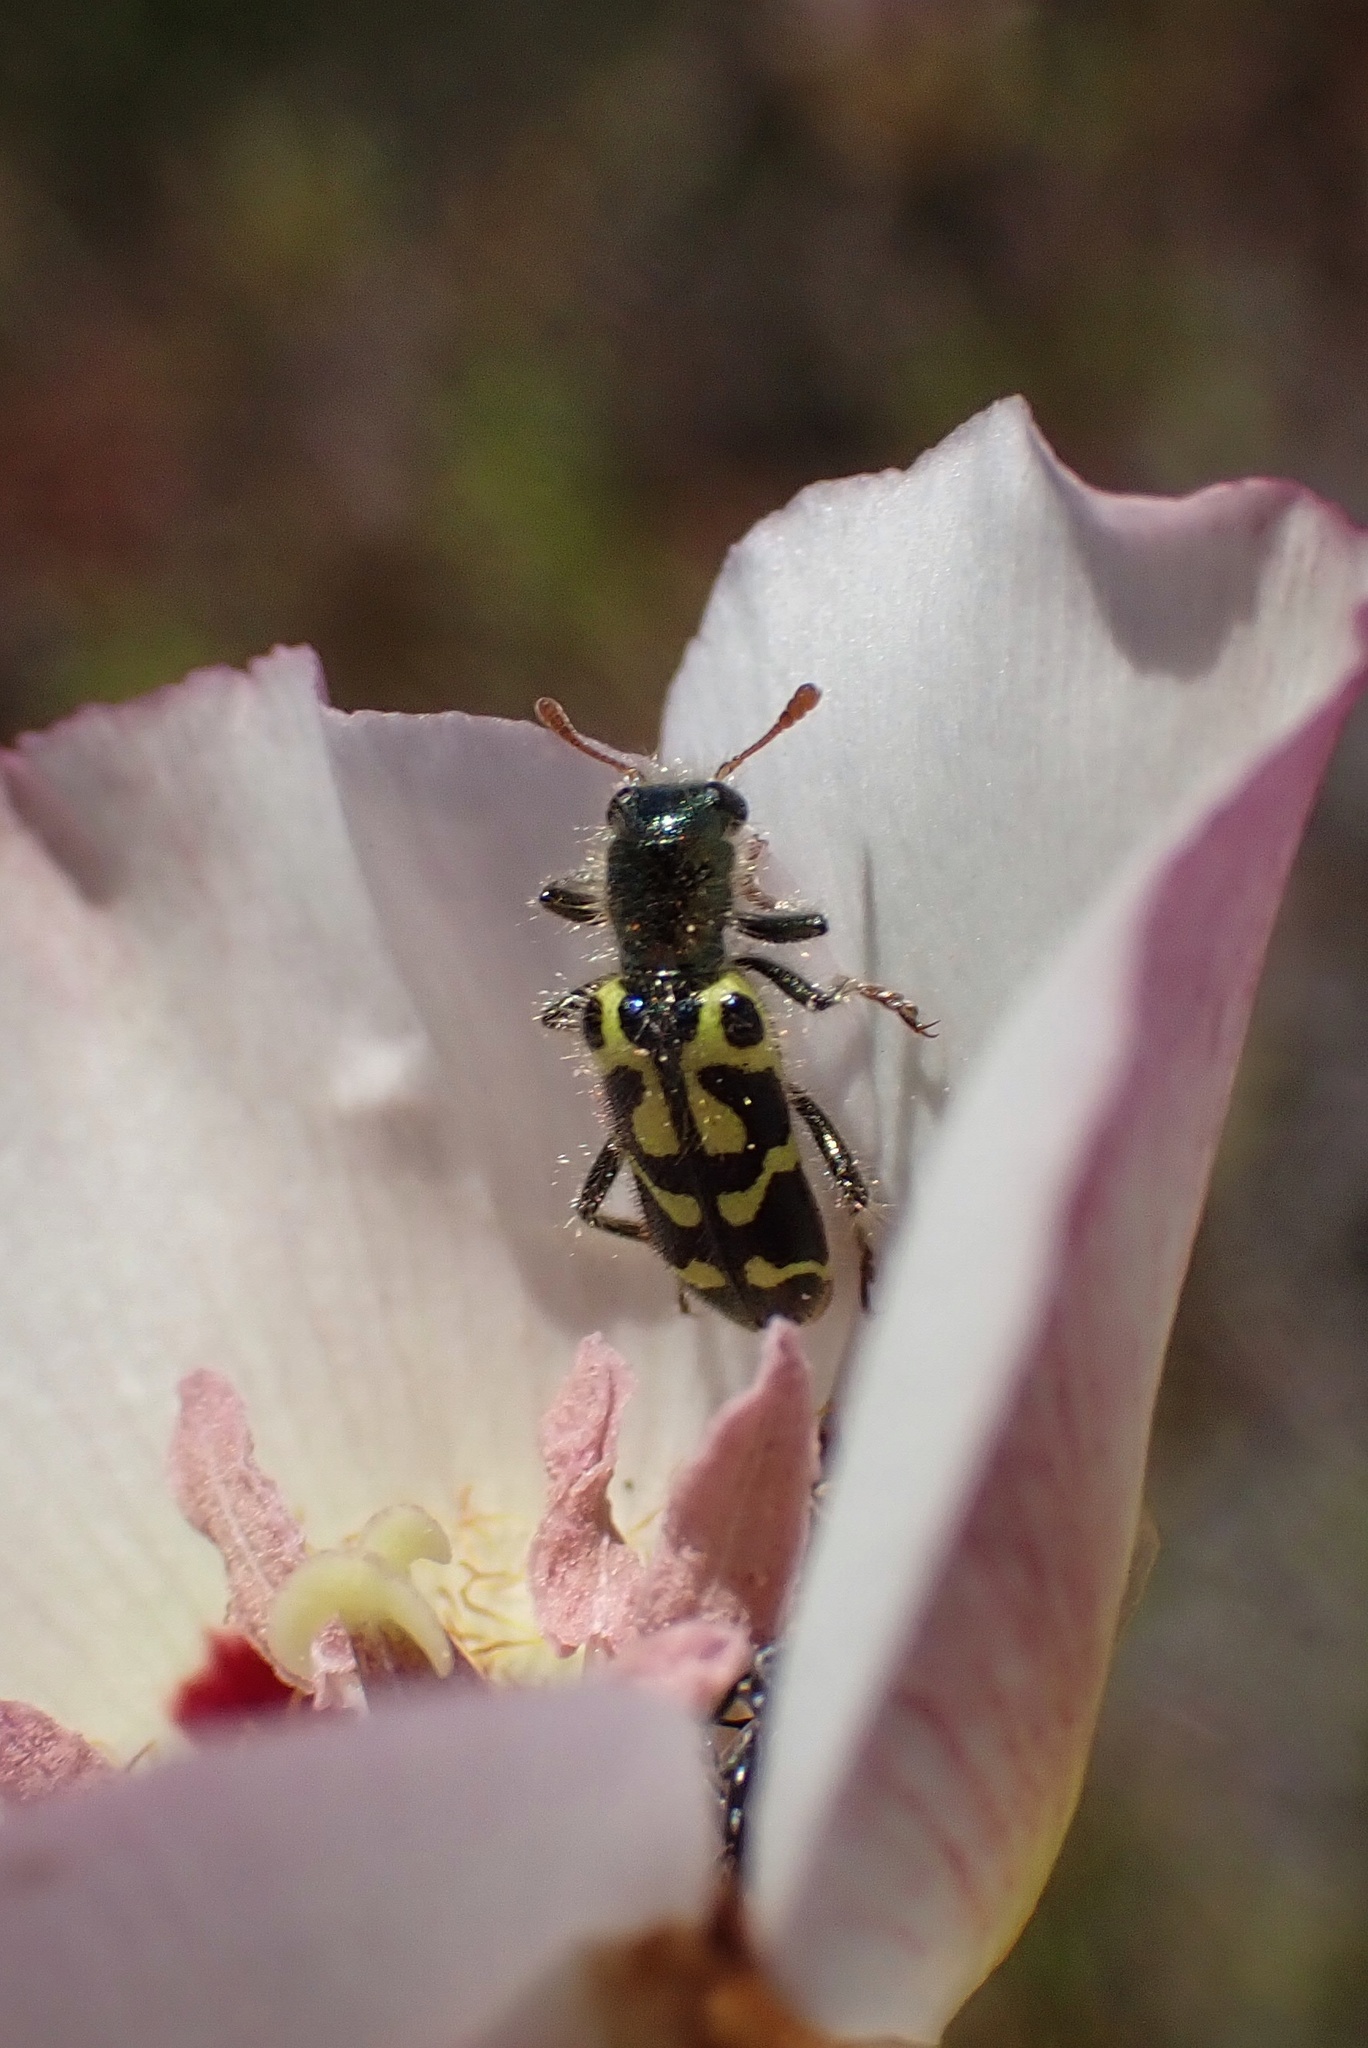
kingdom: Animalia
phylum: Arthropoda
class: Insecta
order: Coleoptera
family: Cleridae
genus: Trichodes
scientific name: Trichodes ornatus
